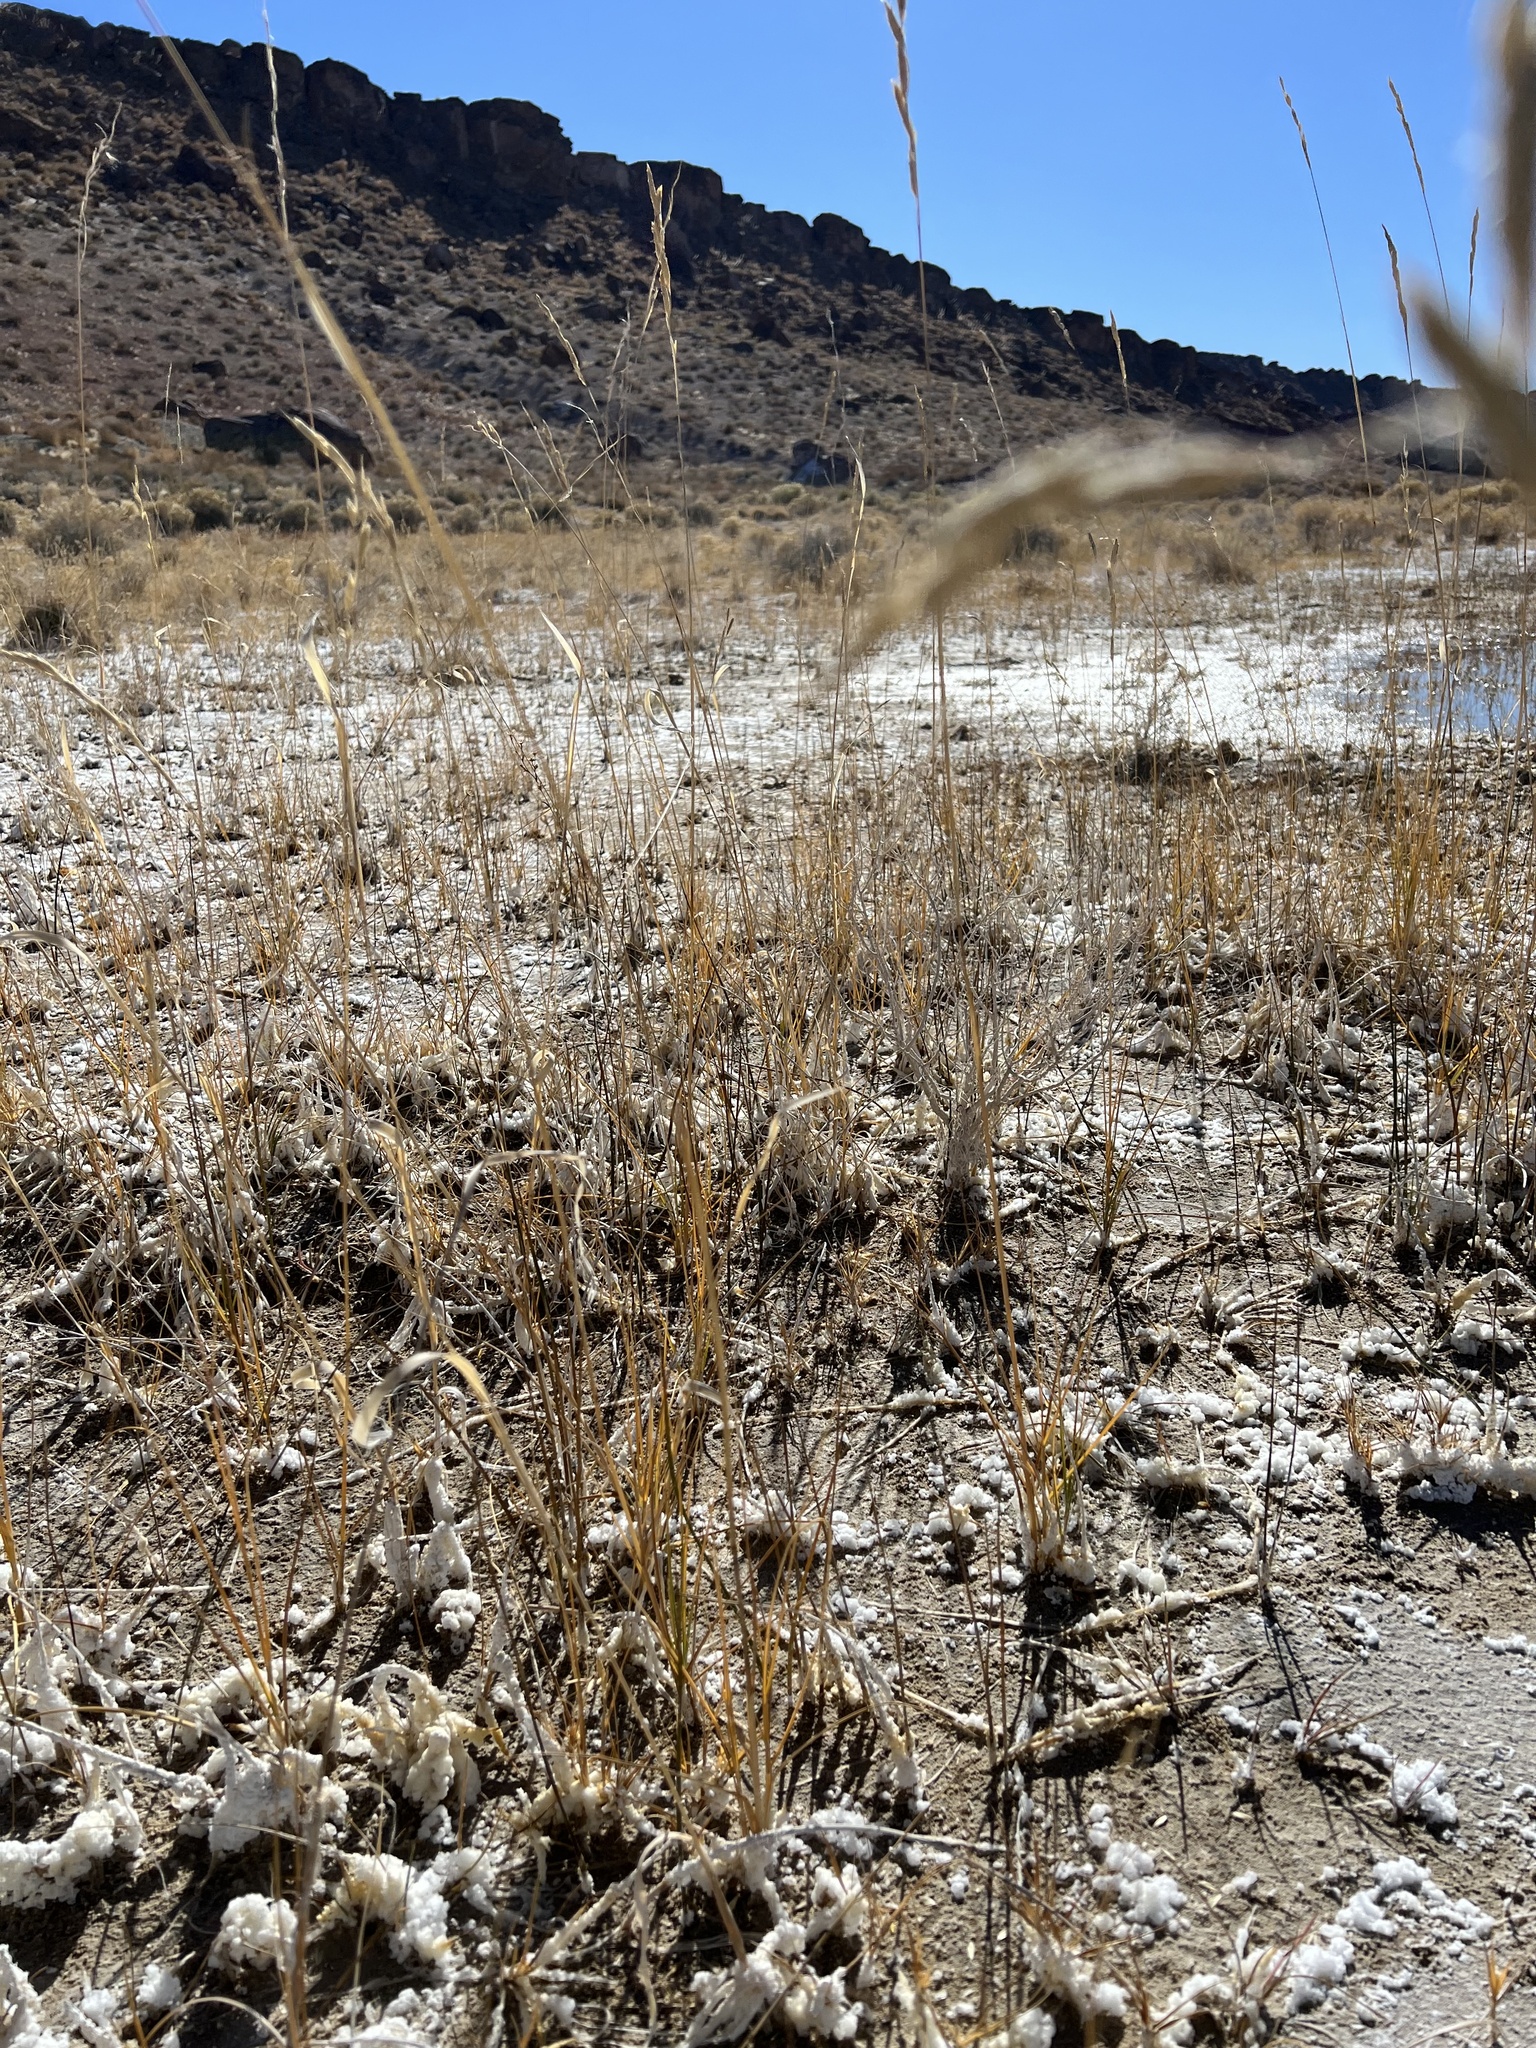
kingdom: Plantae
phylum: Tracheophyta
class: Liliopsida
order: Poales
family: Poaceae
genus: Sporobolus
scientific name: Sporobolus hookerianus
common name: Alkali cordgrass
